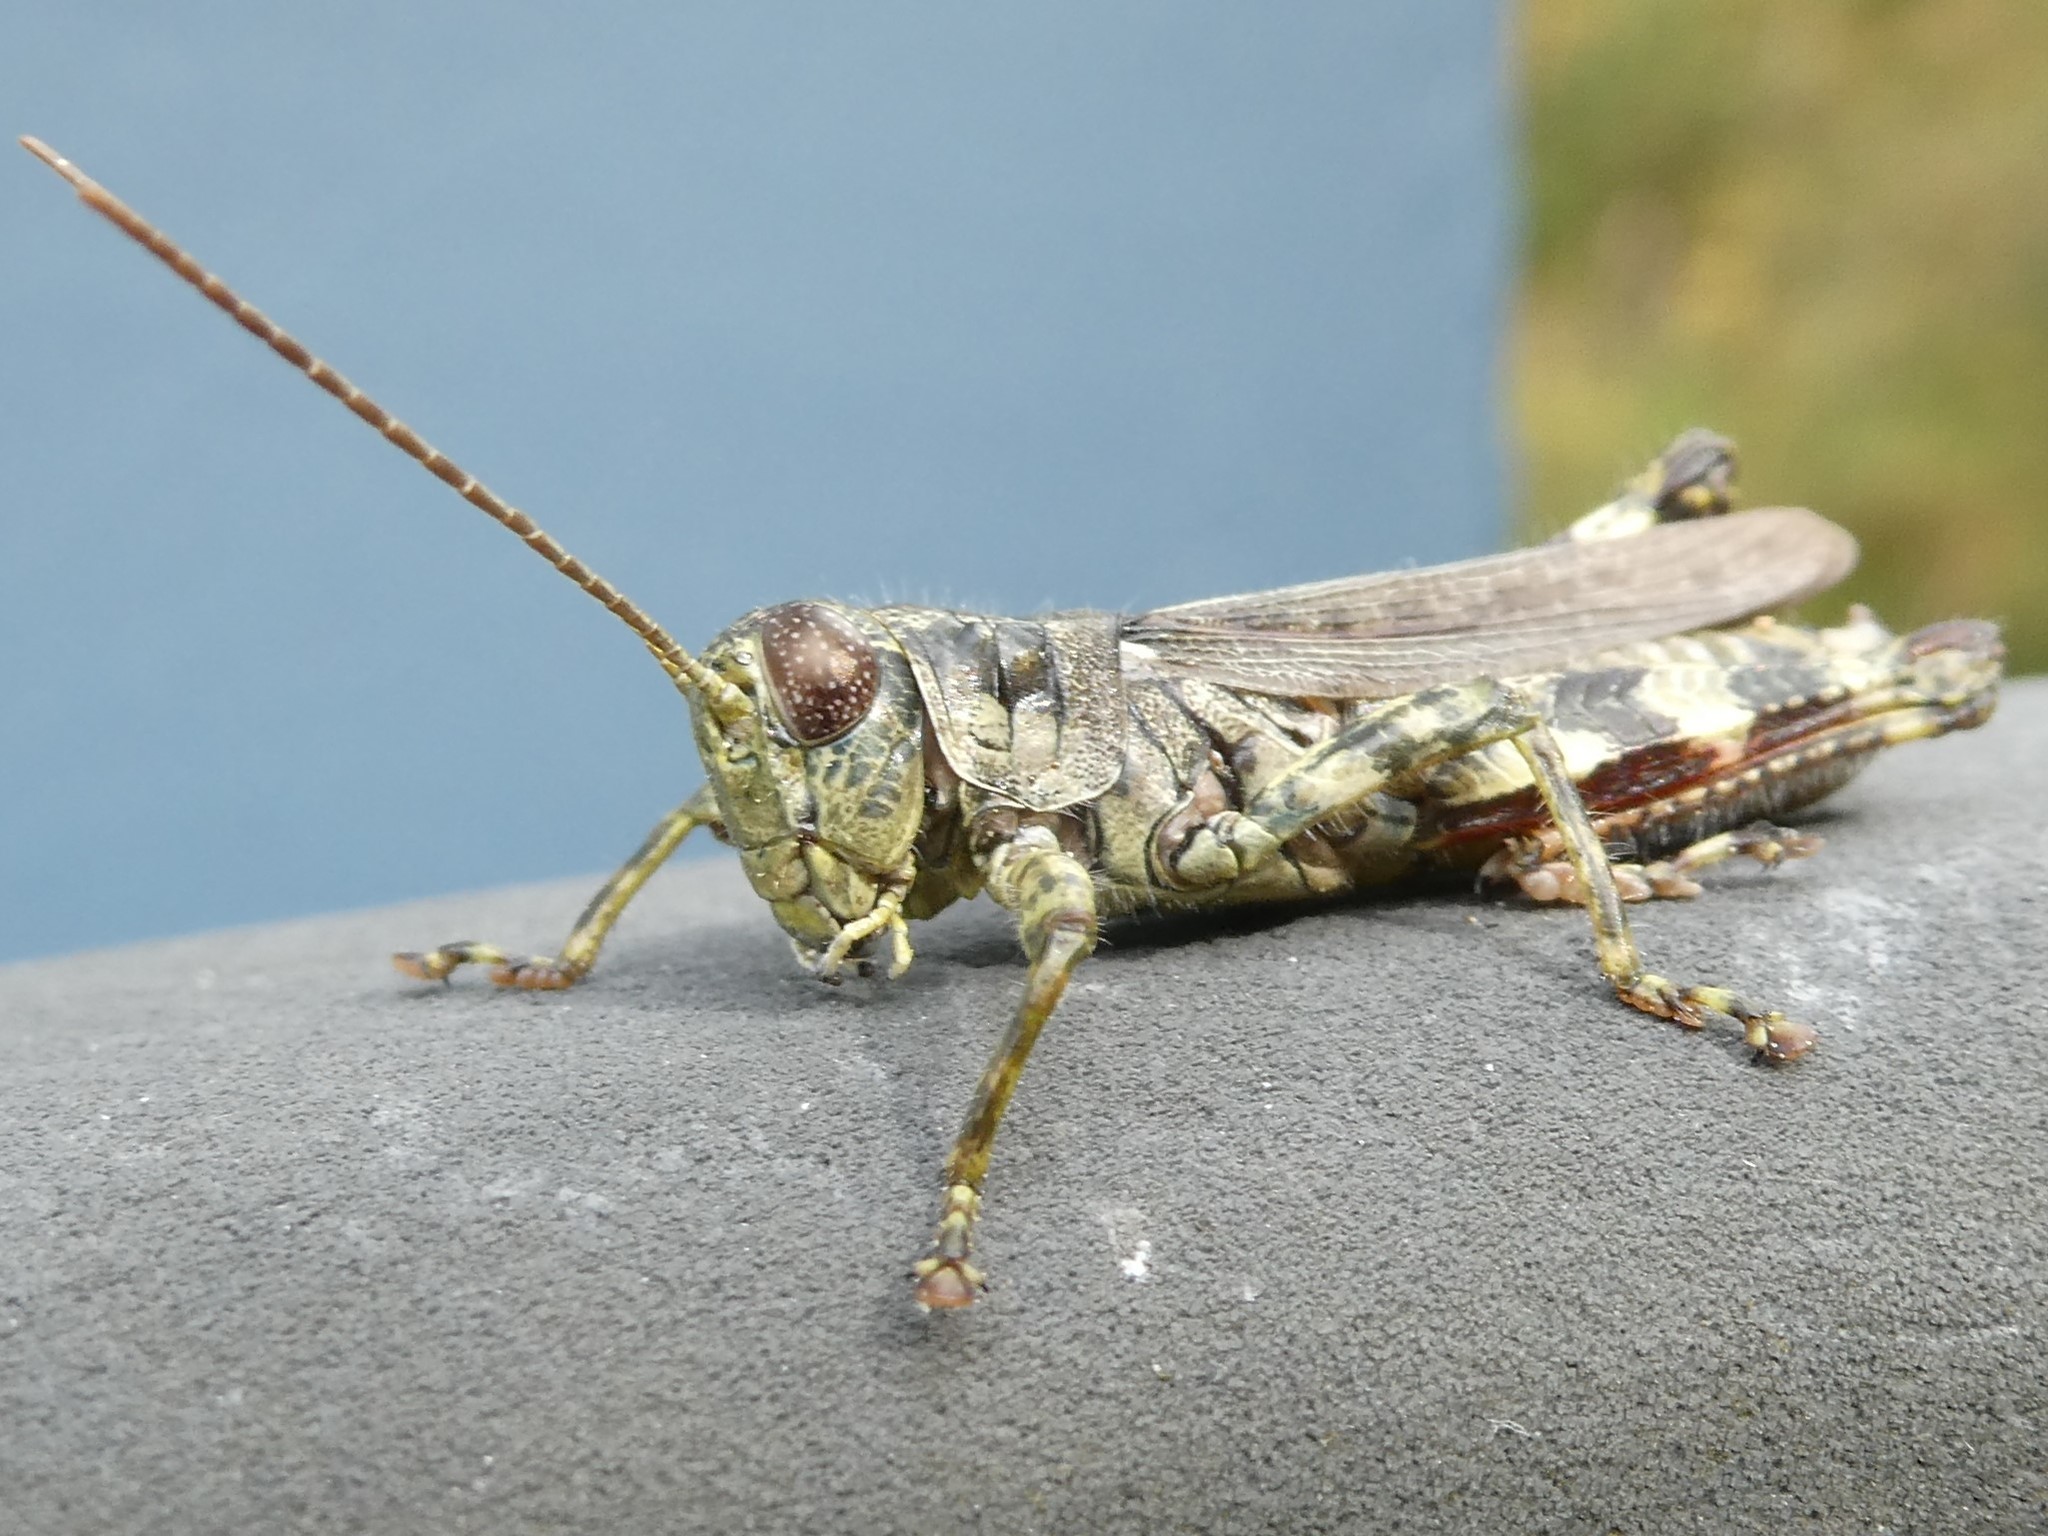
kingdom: Animalia
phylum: Arthropoda
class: Insecta
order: Orthoptera
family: Acrididae
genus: Melanoplus
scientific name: Melanoplus punctulatus
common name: Pine-tree spur-throat grasshopper
